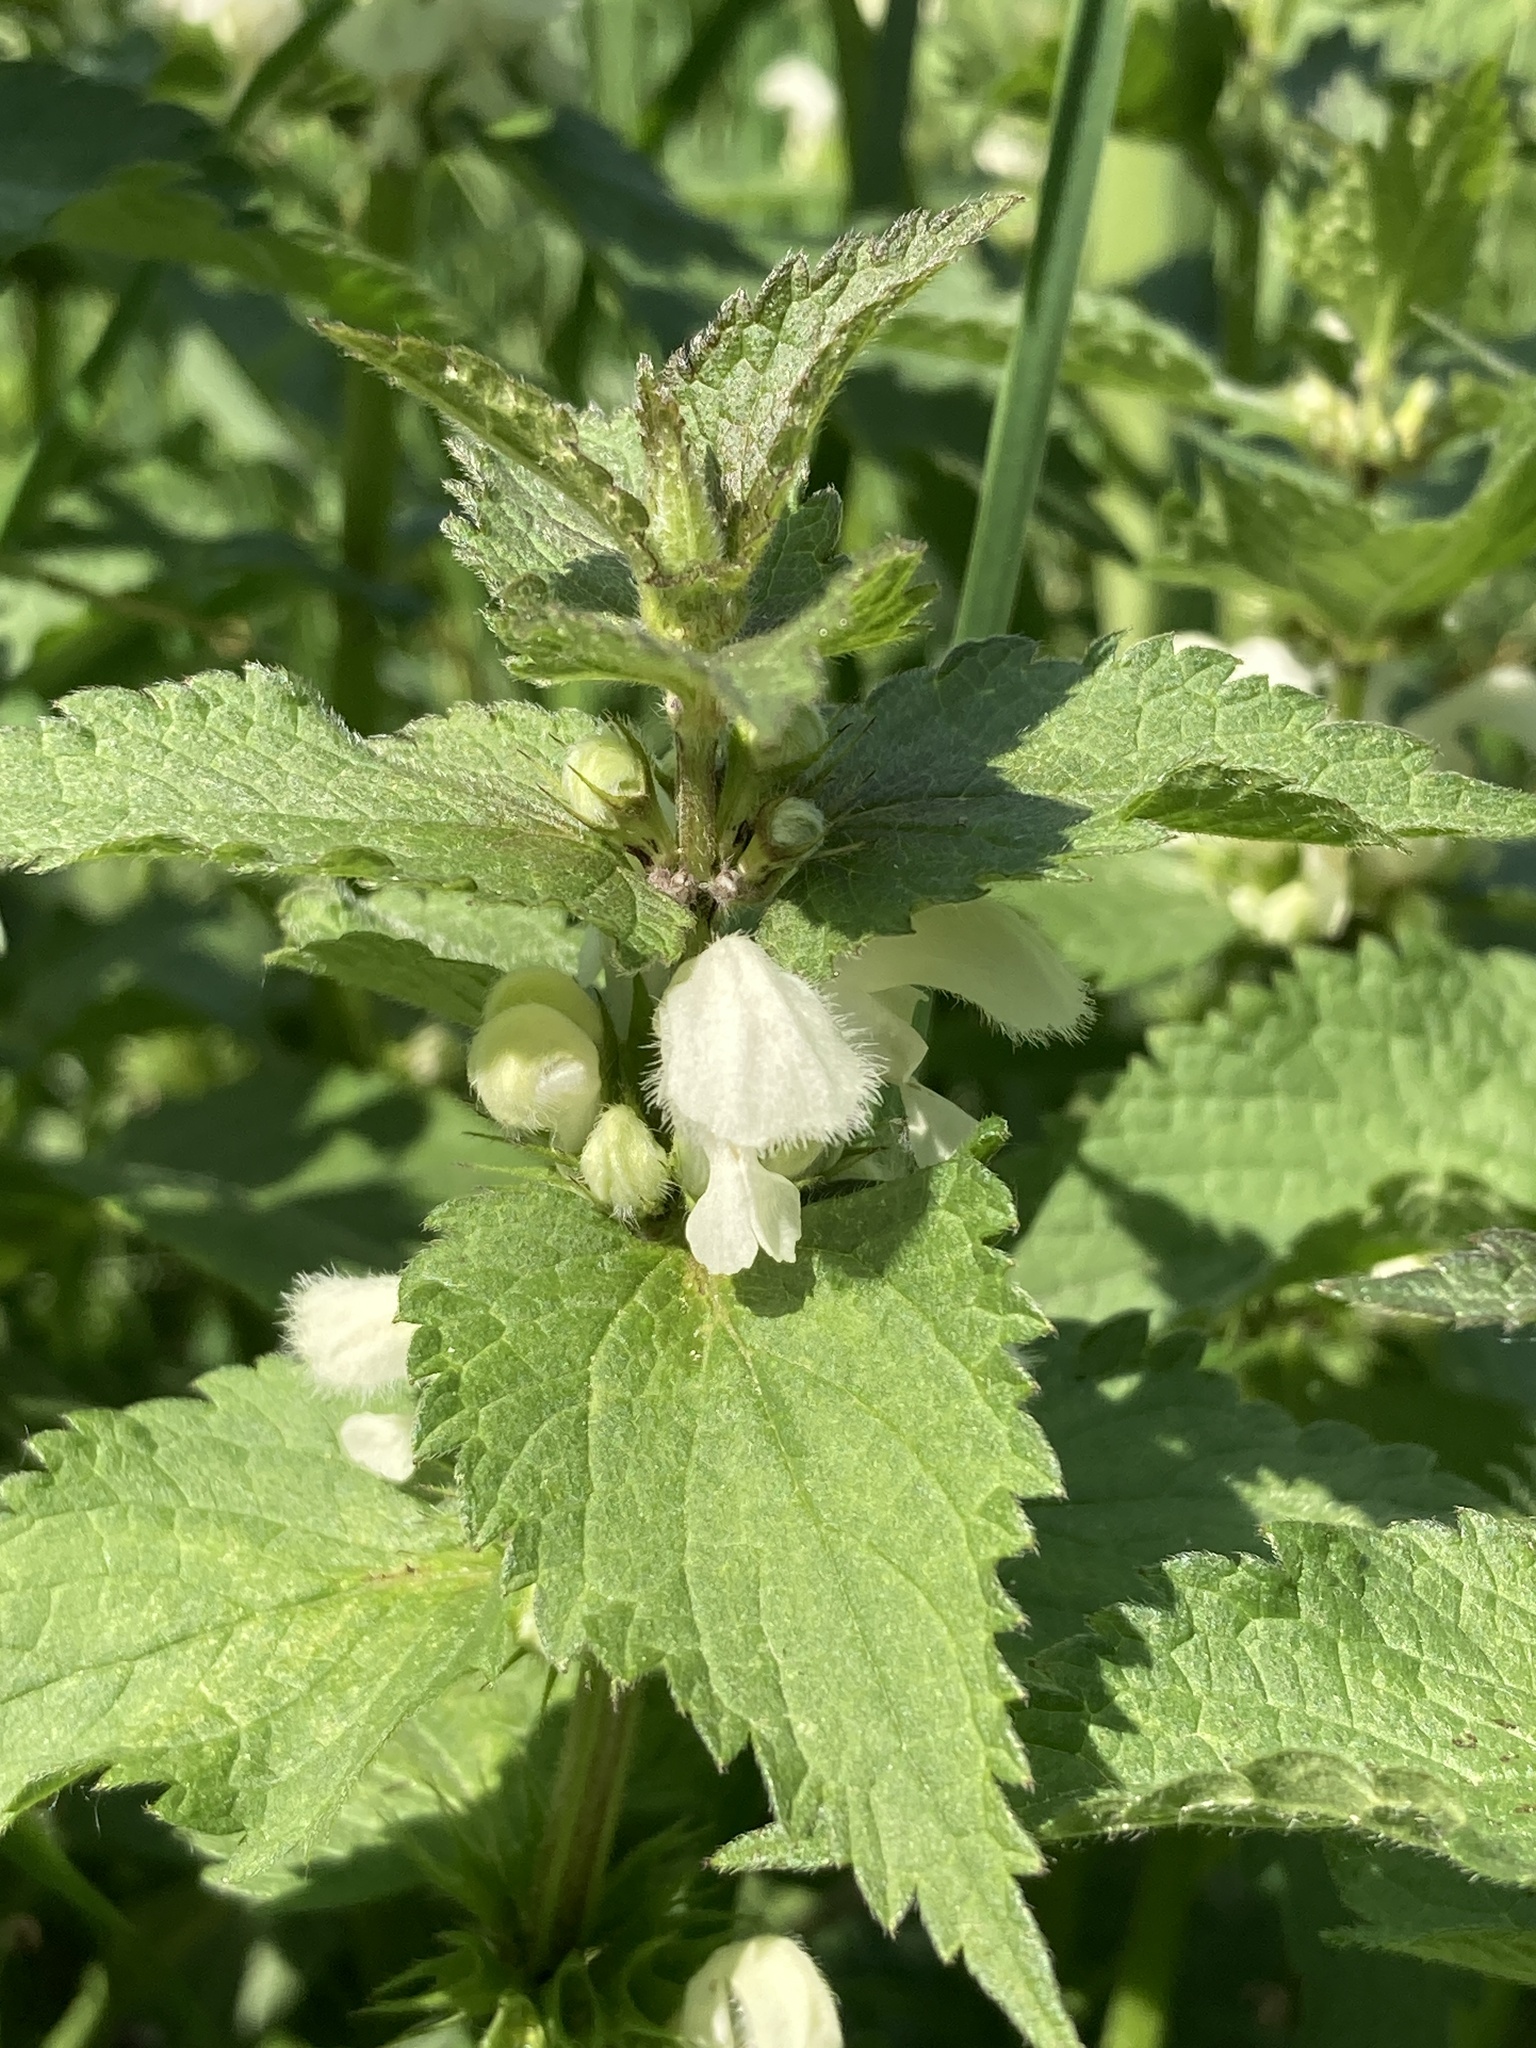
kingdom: Plantae
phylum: Tracheophyta
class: Magnoliopsida
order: Lamiales
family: Lamiaceae
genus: Lamium
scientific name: Lamium album
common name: White dead-nettle
